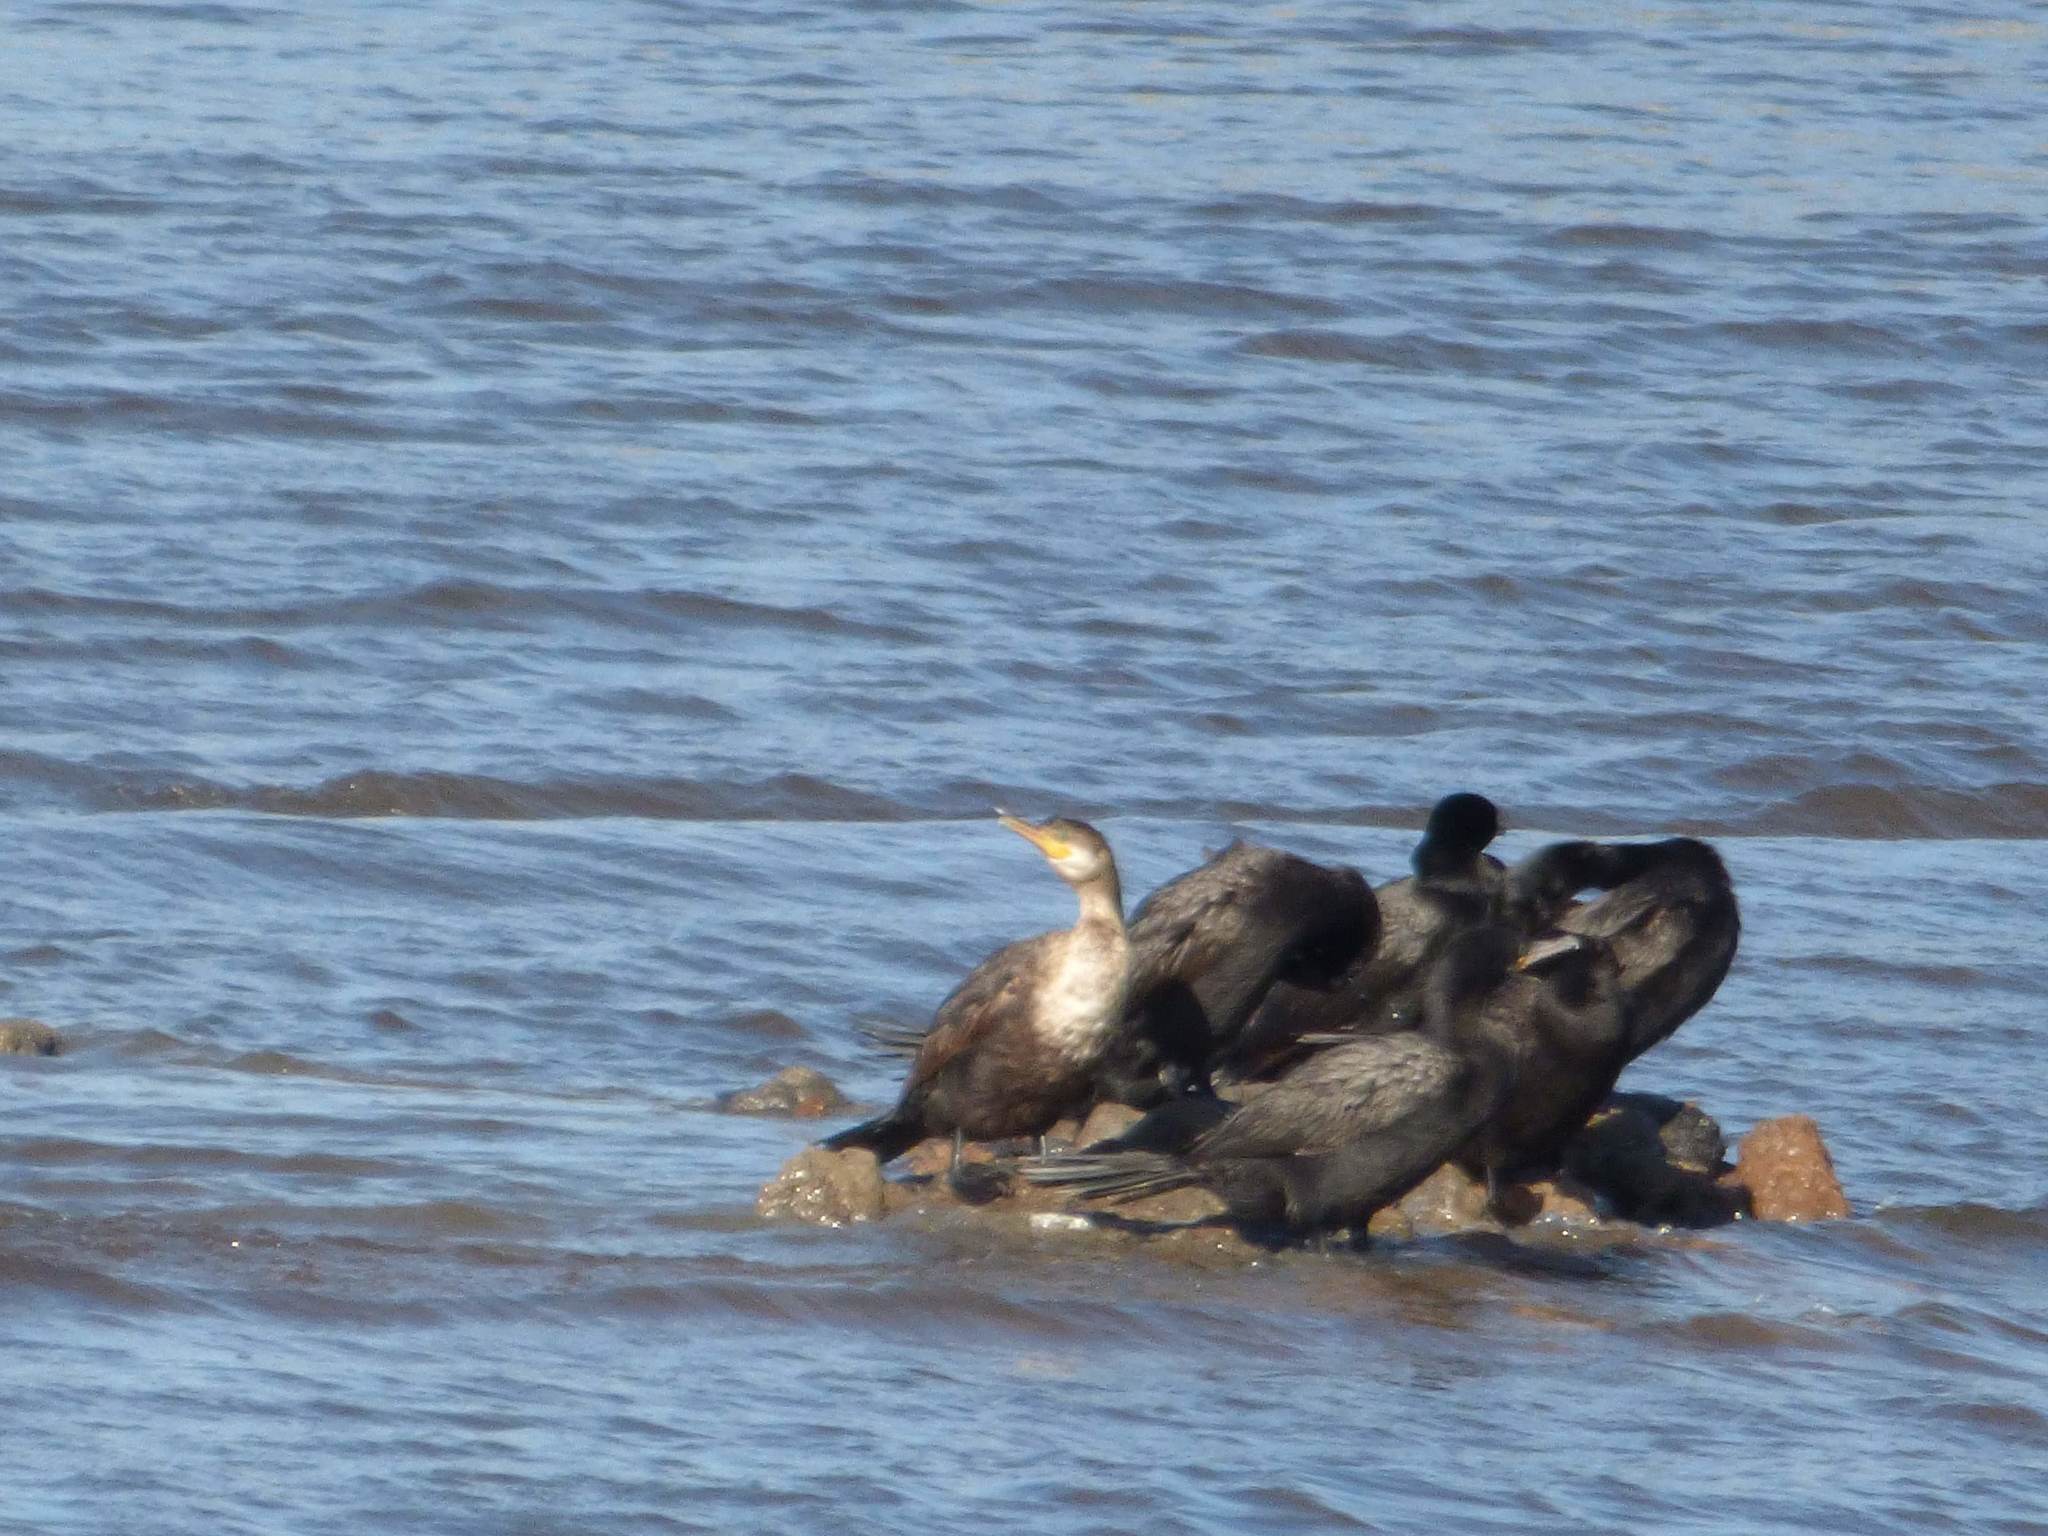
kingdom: Animalia
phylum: Chordata
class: Aves
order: Suliformes
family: Phalacrocoracidae
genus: Phalacrocorax
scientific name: Phalacrocorax brasilianus
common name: Neotropic cormorant
